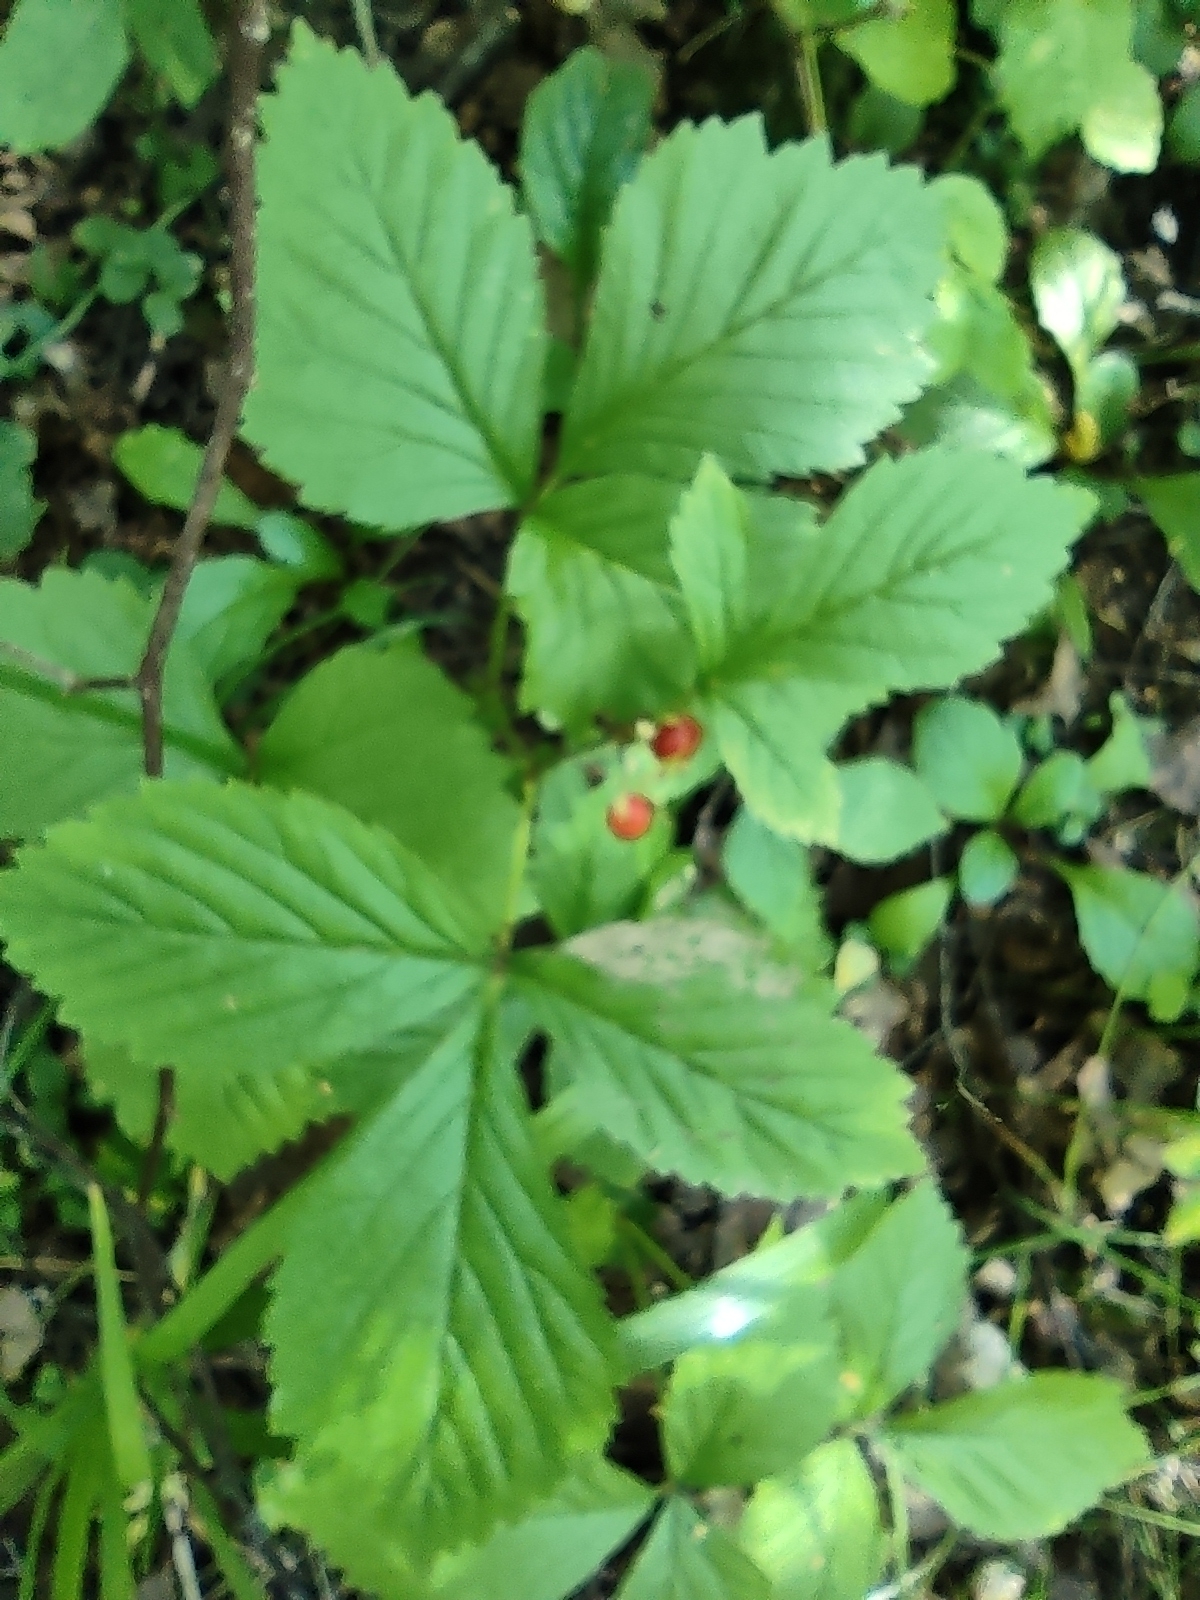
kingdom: Plantae
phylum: Tracheophyta
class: Magnoliopsida
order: Rosales
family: Rosaceae
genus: Rubus
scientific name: Rubus saxatilis
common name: Stone bramble
